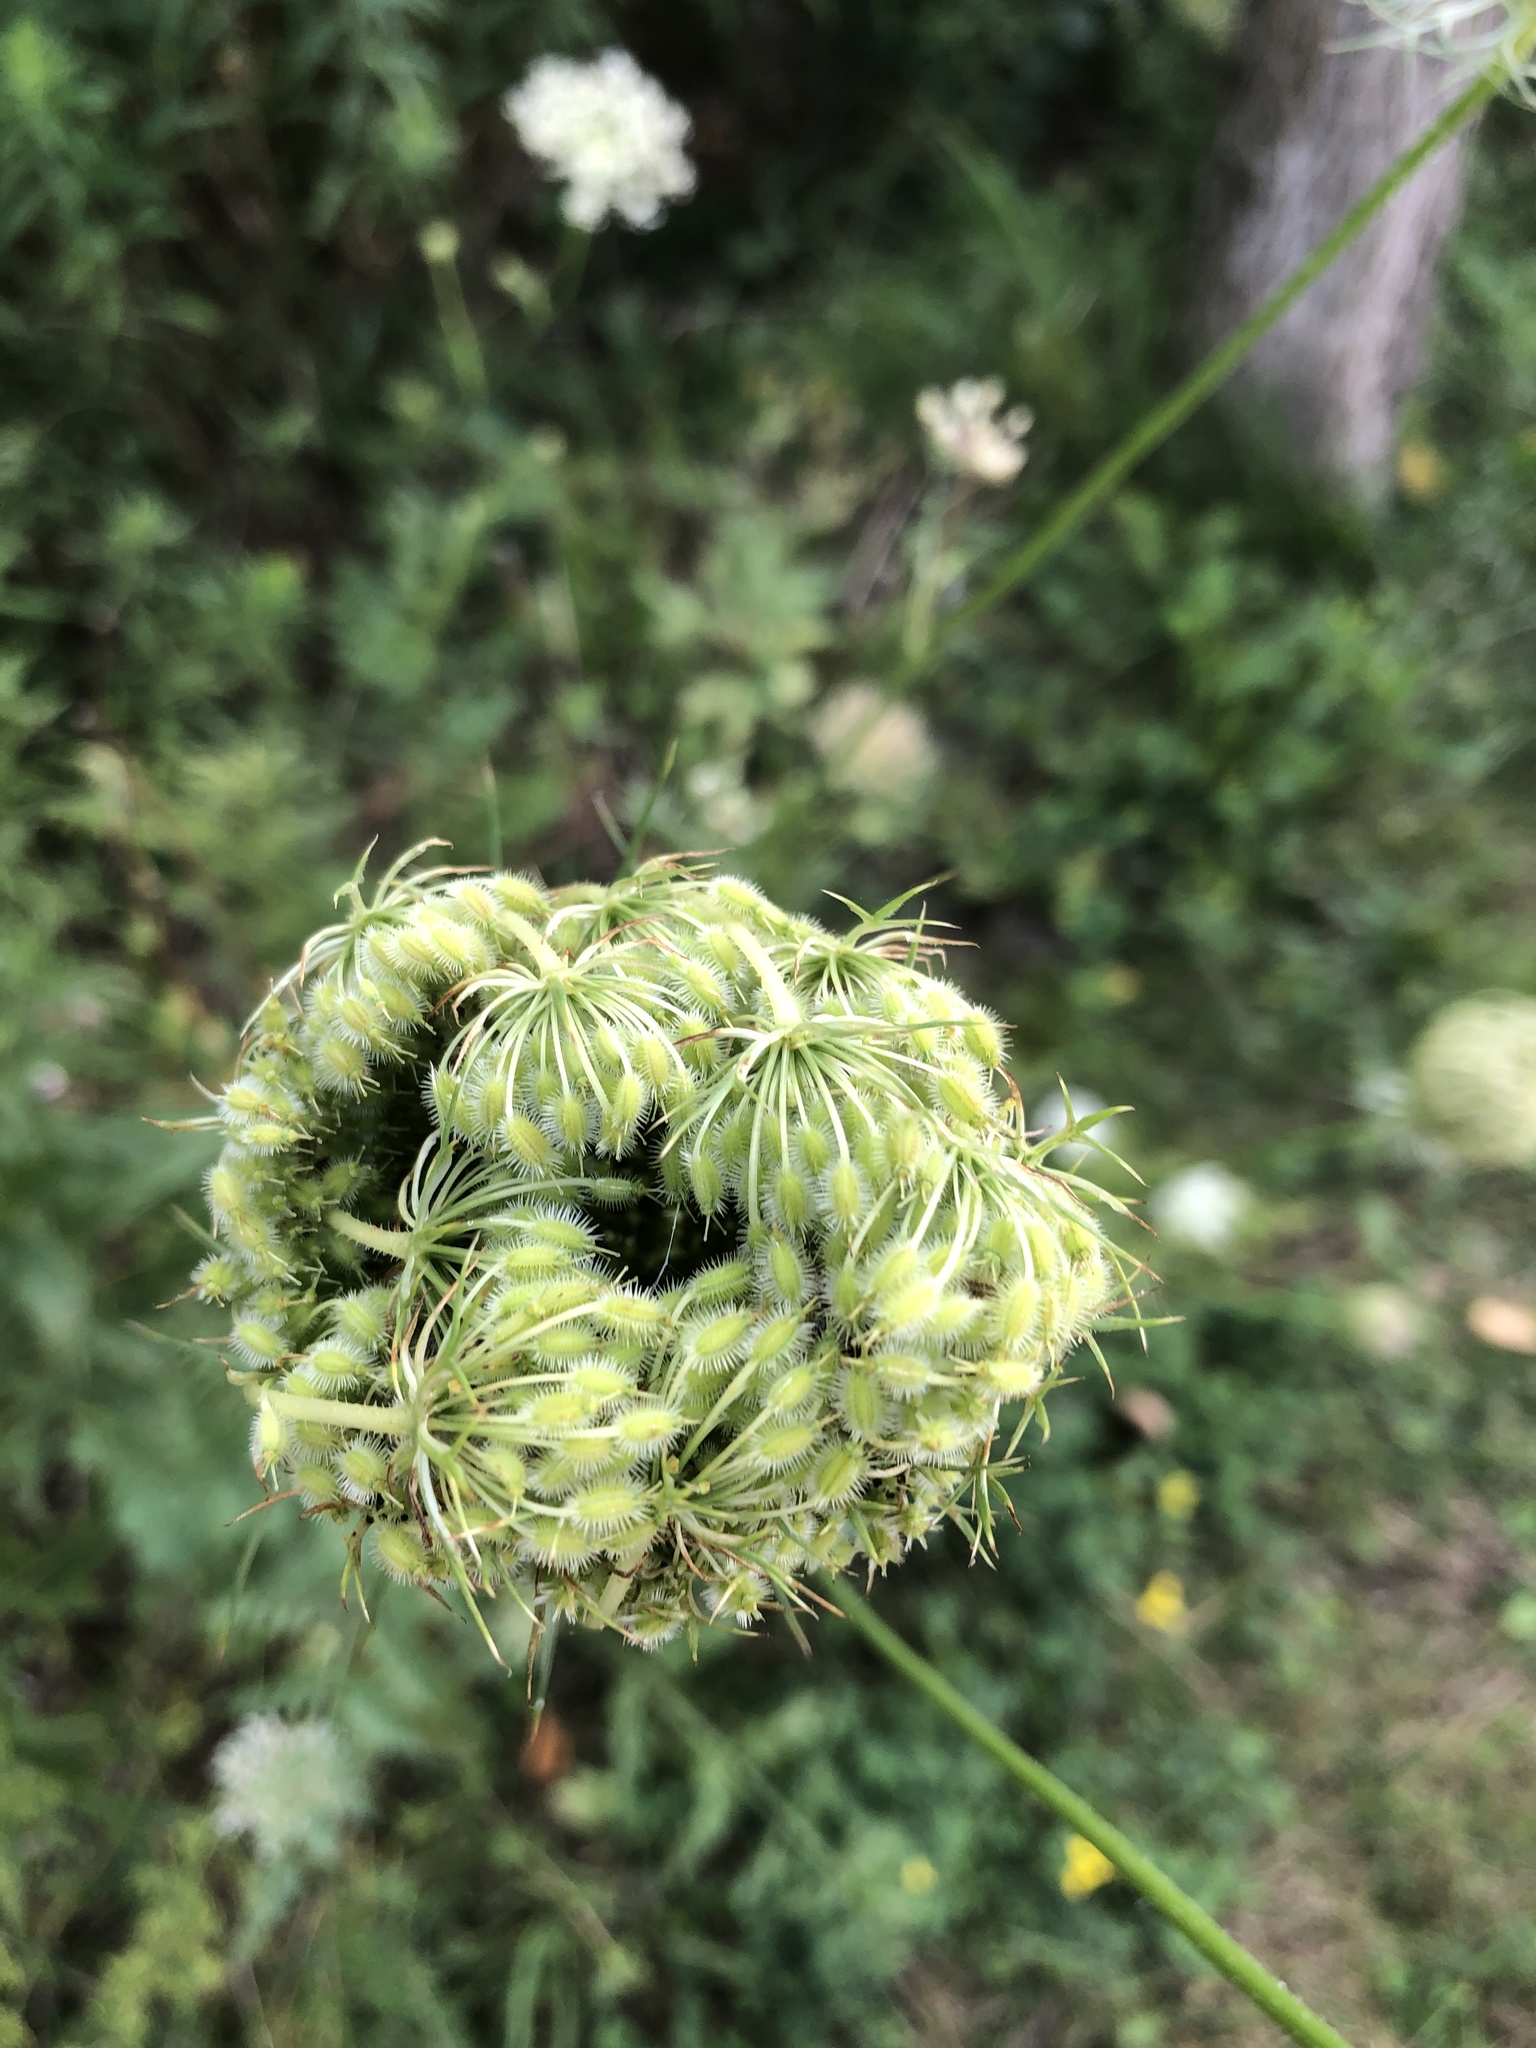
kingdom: Plantae
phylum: Tracheophyta
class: Magnoliopsida
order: Apiales
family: Apiaceae
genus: Daucus
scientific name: Daucus carota
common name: Wild carrot
